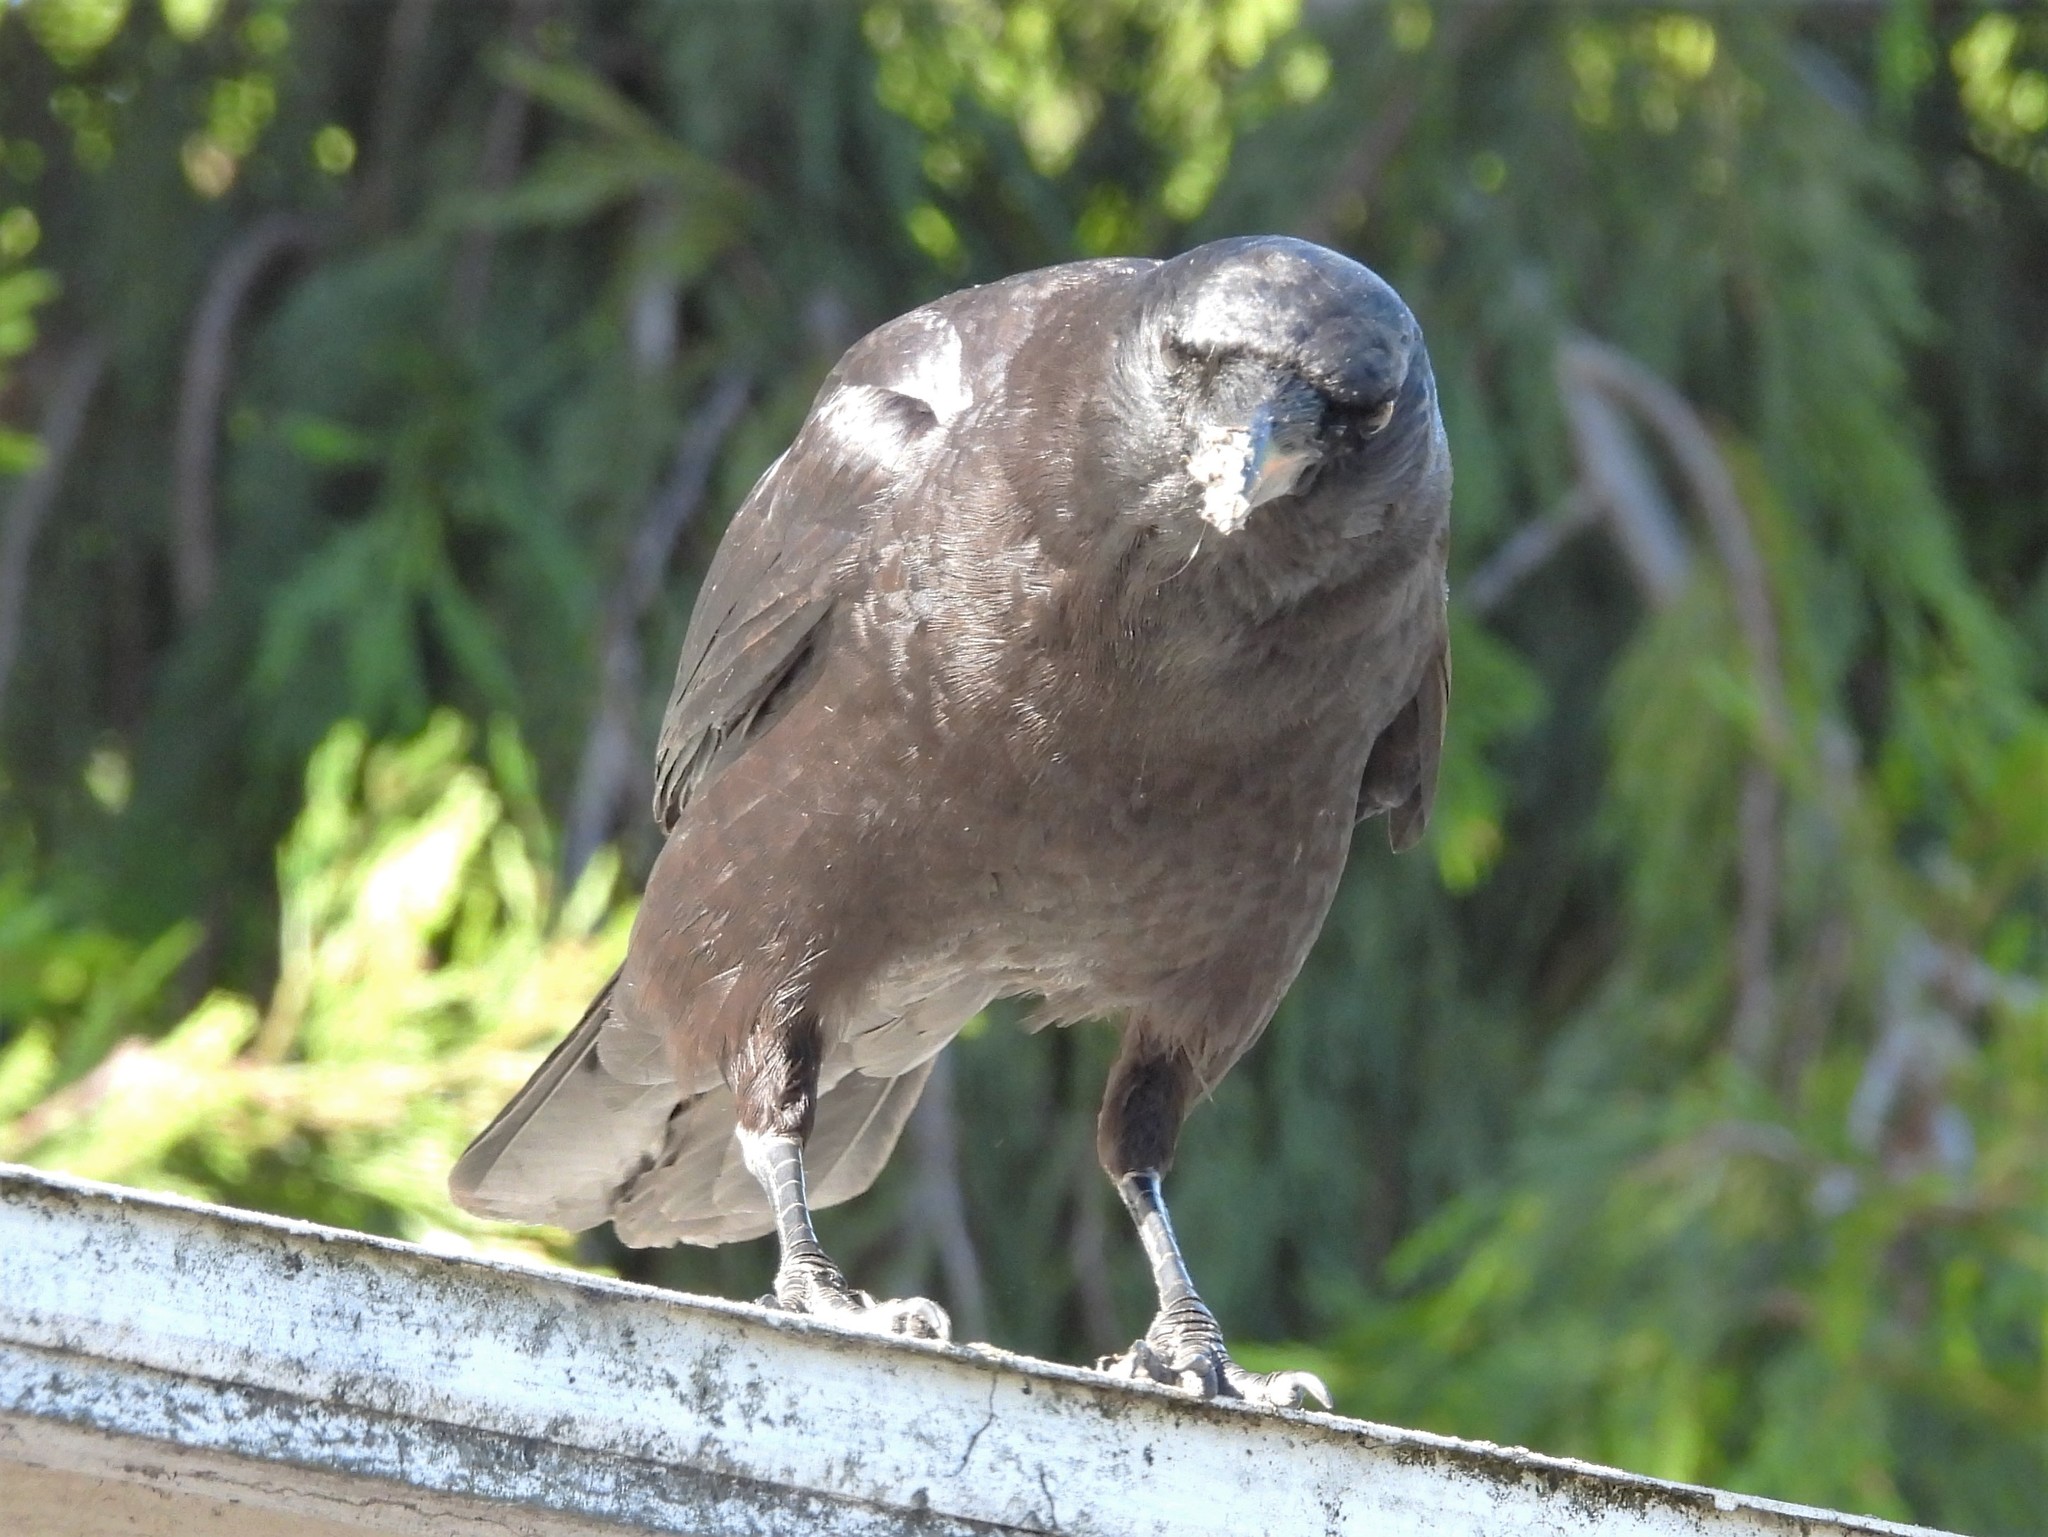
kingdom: Animalia
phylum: Chordata
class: Aves
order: Passeriformes
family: Corvidae
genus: Corvus
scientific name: Corvus brachyrhynchos
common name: American crow
